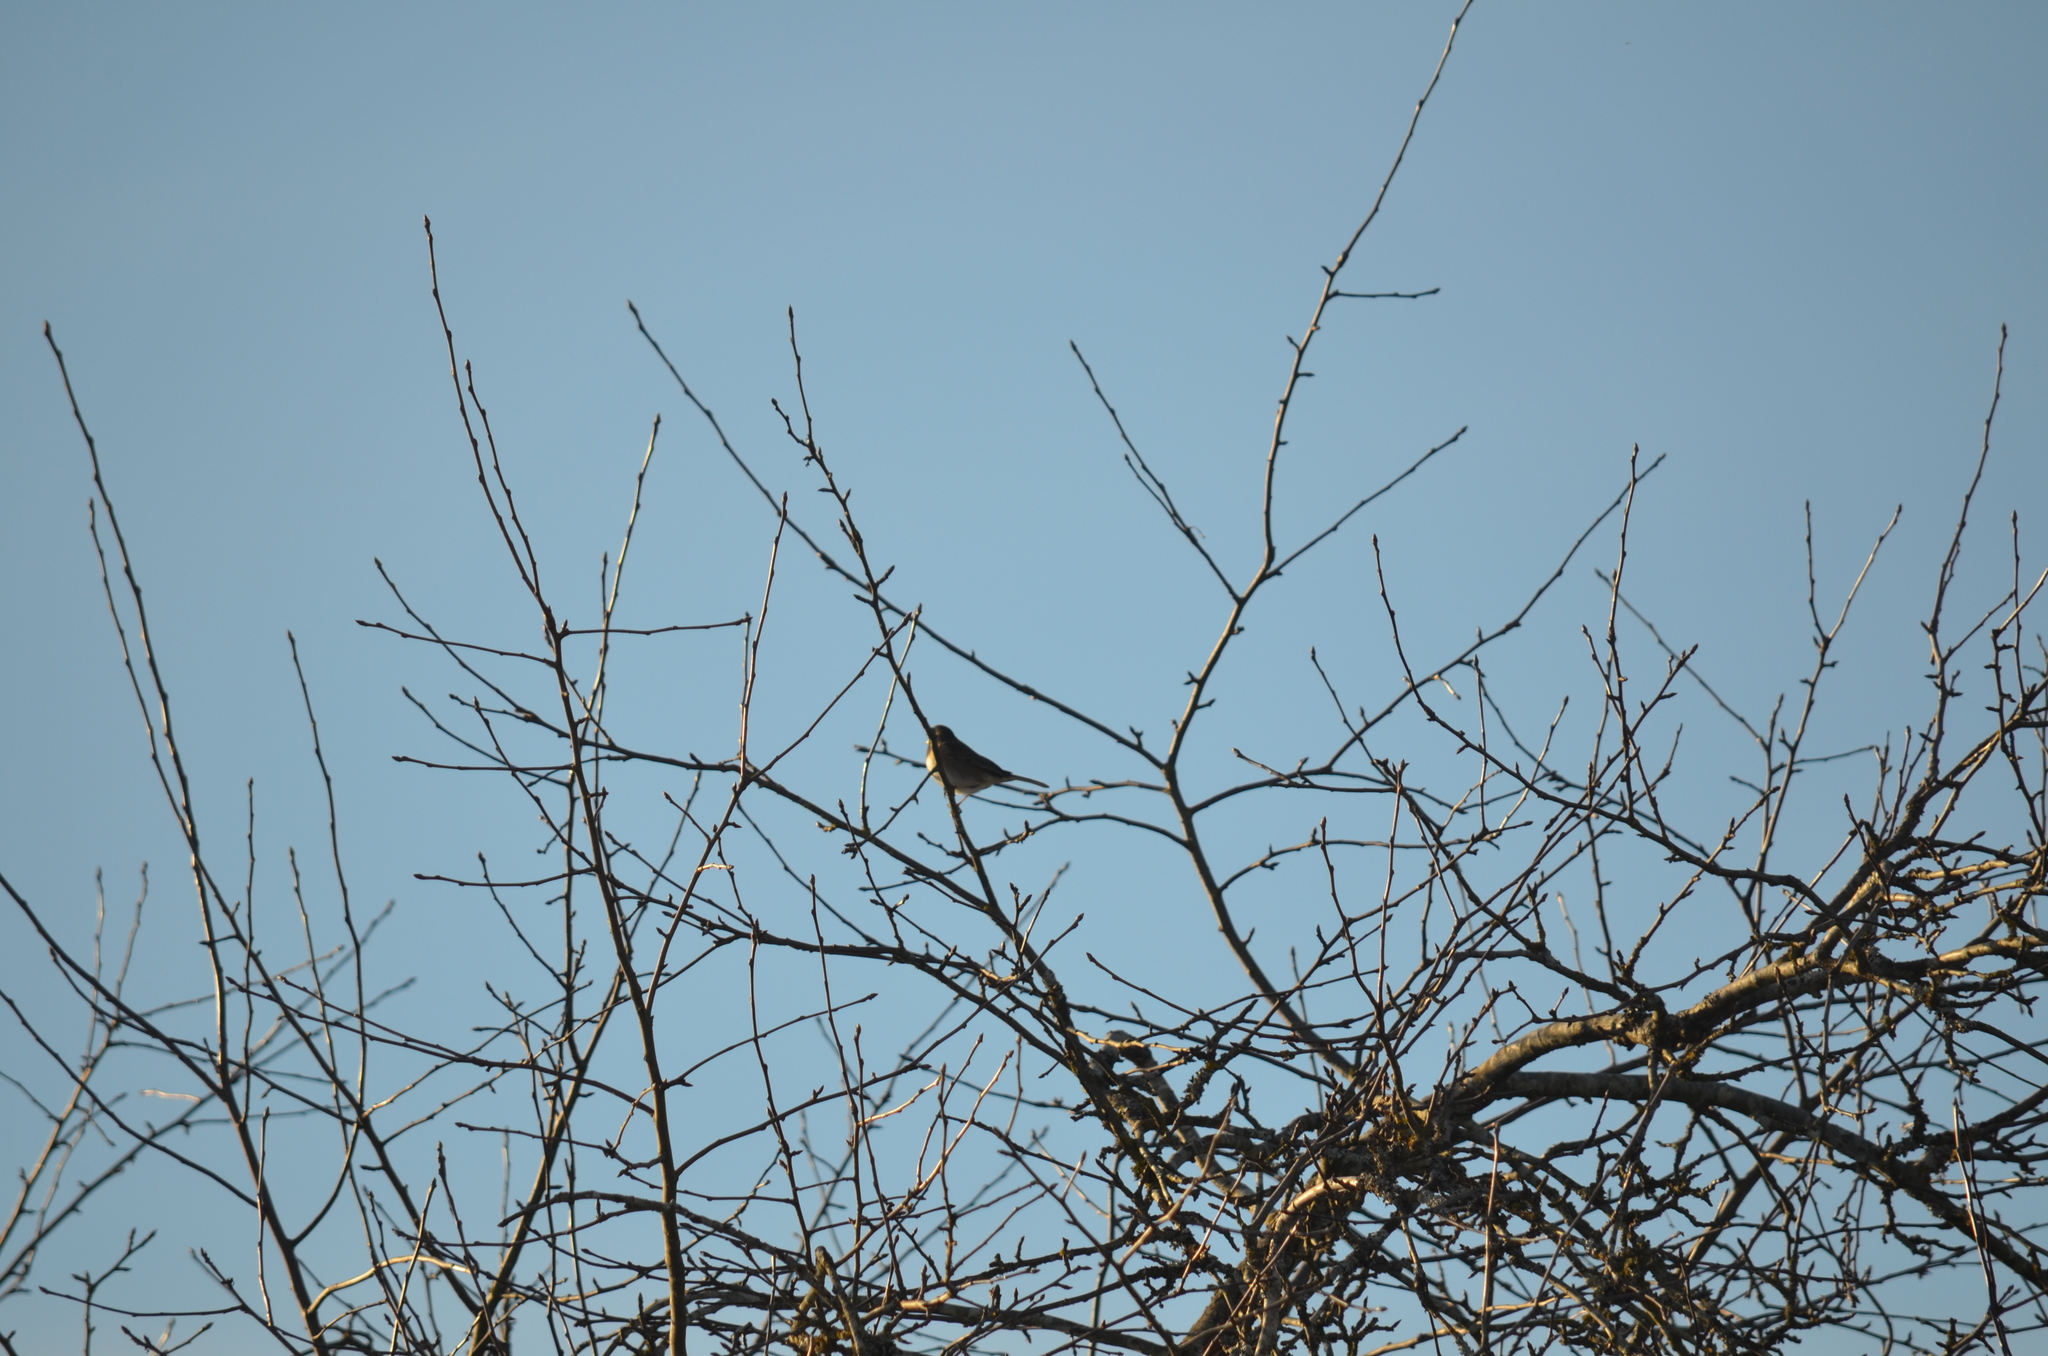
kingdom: Animalia
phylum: Chordata
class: Aves
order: Passeriformes
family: Passerellidae
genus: Junco
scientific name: Junco hyemalis
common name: Dark-eyed junco
